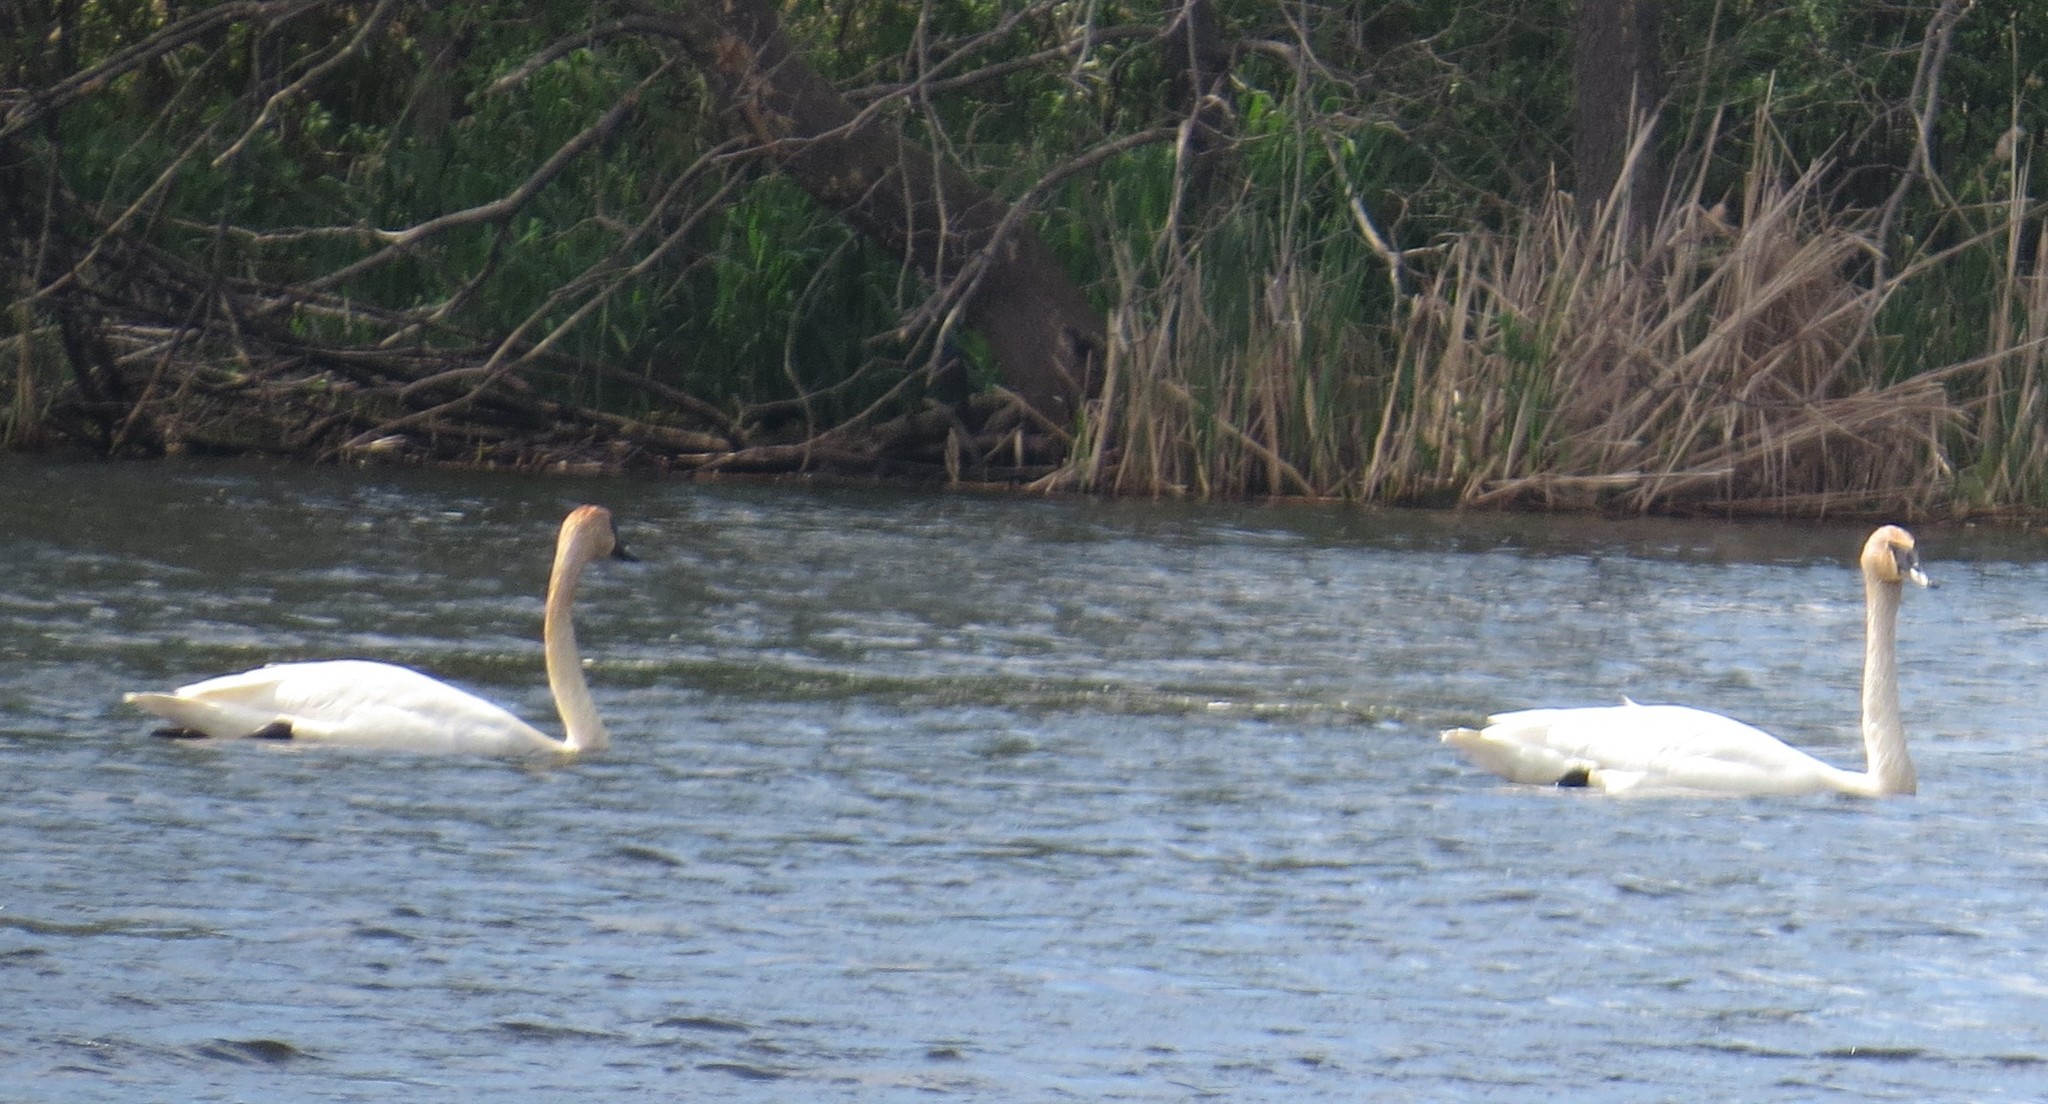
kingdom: Animalia
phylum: Chordata
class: Aves
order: Anseriformes
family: Anatidae
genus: Cygnus
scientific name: Cygnus buccinator
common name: Trumpeter swan
